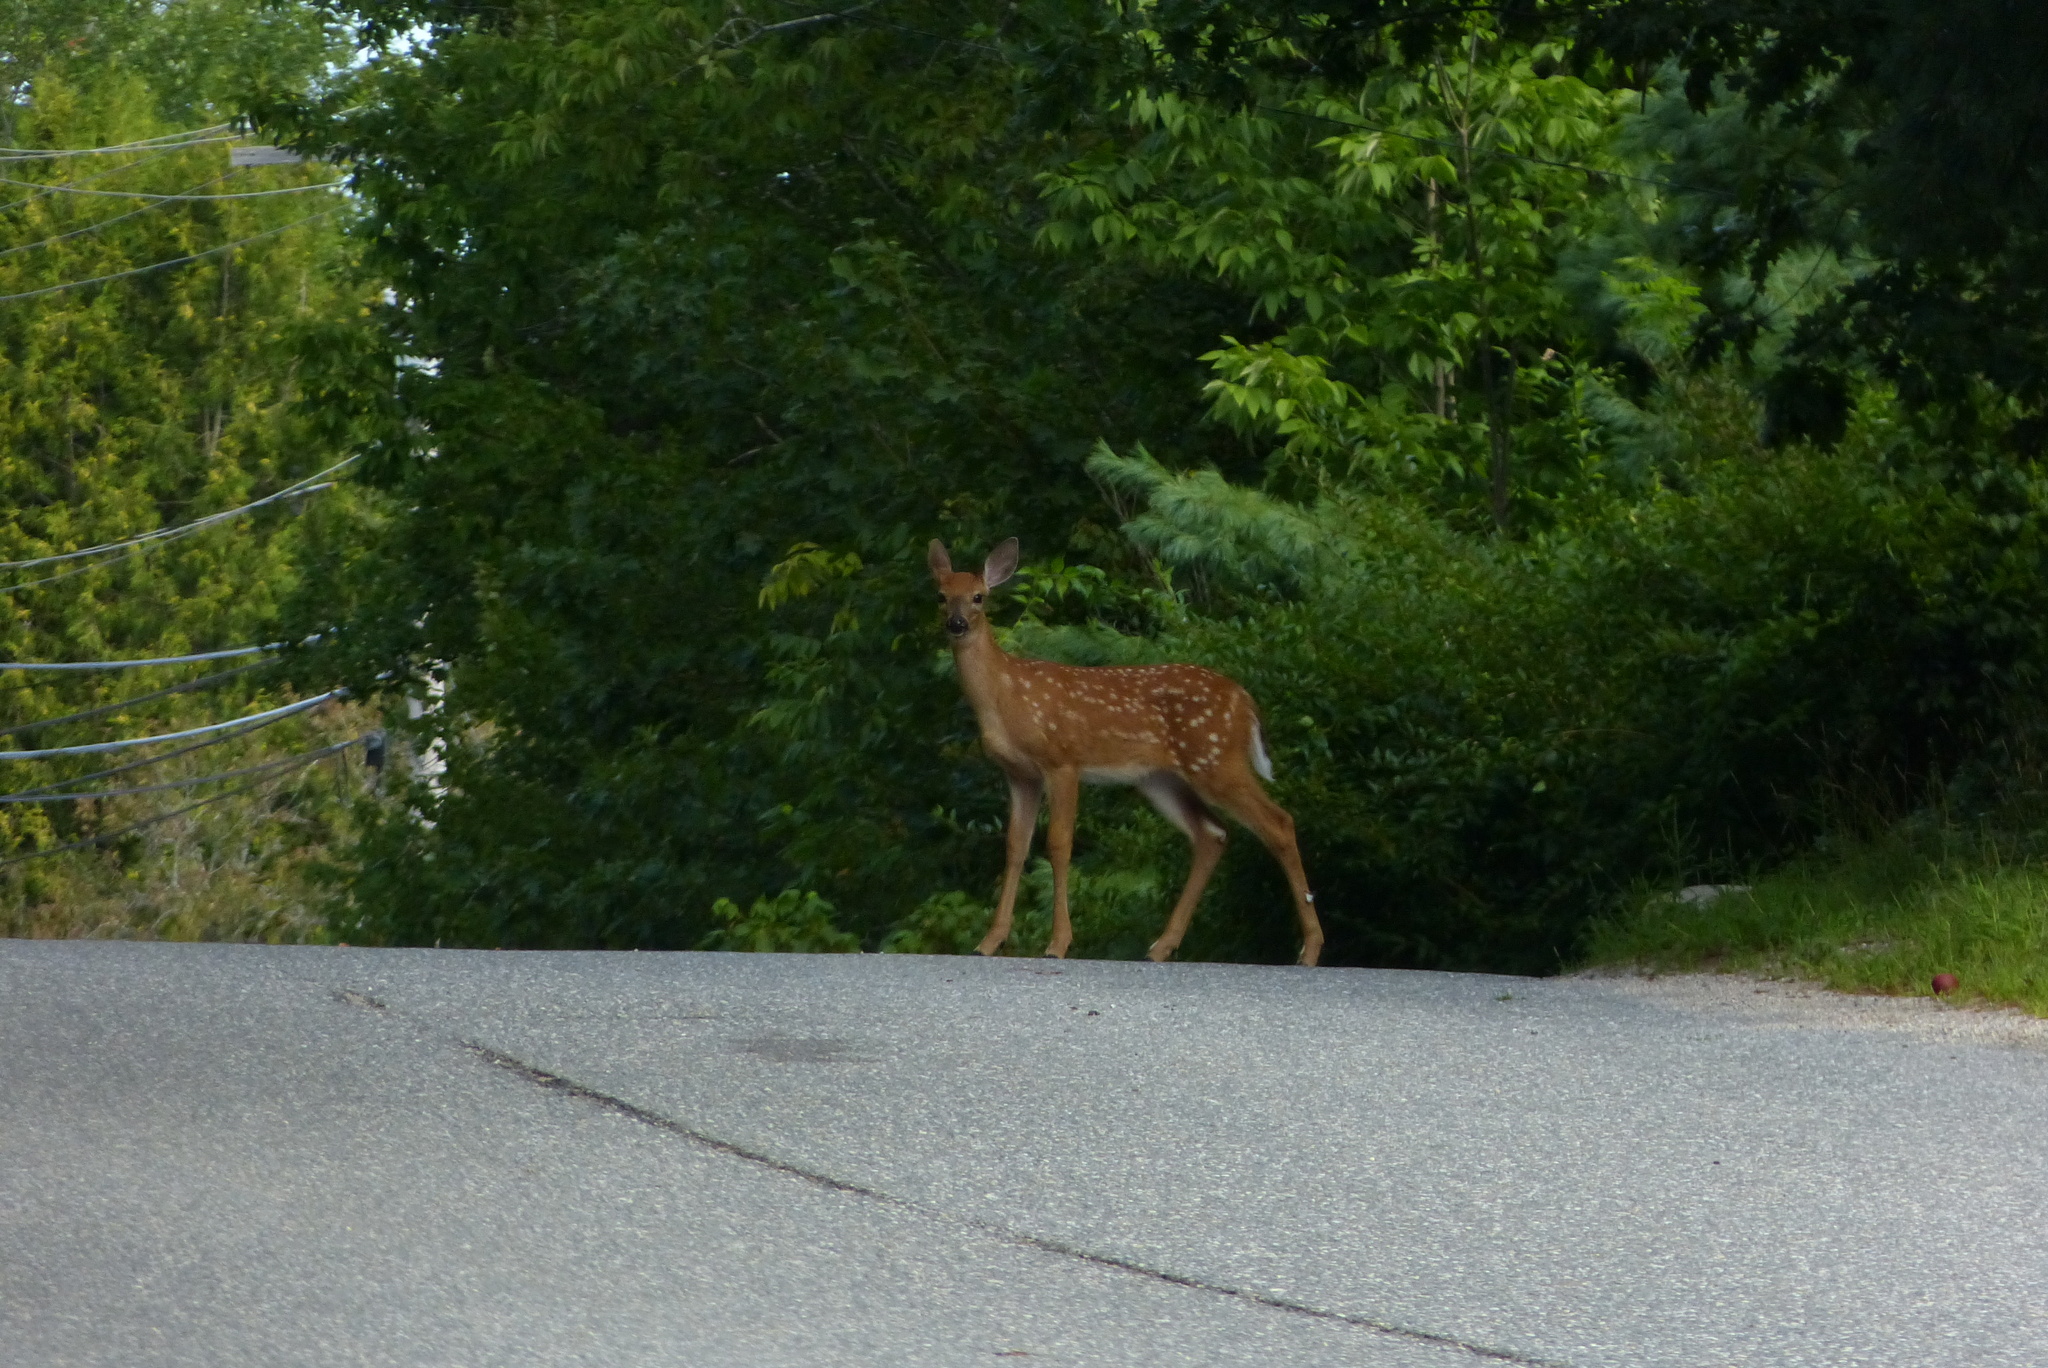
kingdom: Animalia
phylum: Chordata
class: Mammalia
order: Artiodactyla
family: Cervidae
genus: Odocoileus
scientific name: Odocoileus virginianus
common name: White-tailed deer
